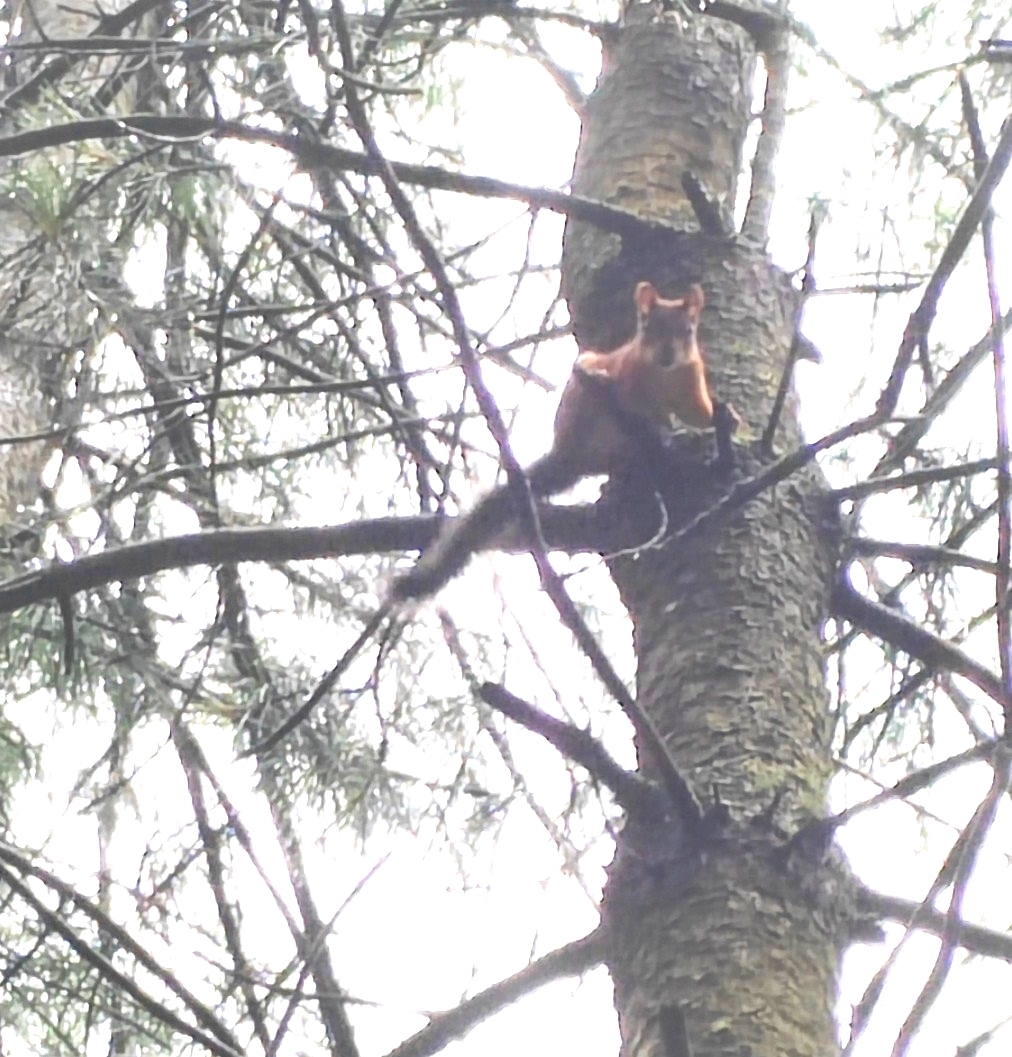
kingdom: Animalia
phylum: Chordata
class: Mammalia
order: Rodentia
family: Sciuridae
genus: Sciurus
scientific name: Sciurus vulgaris
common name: Eurasian red squirrel
